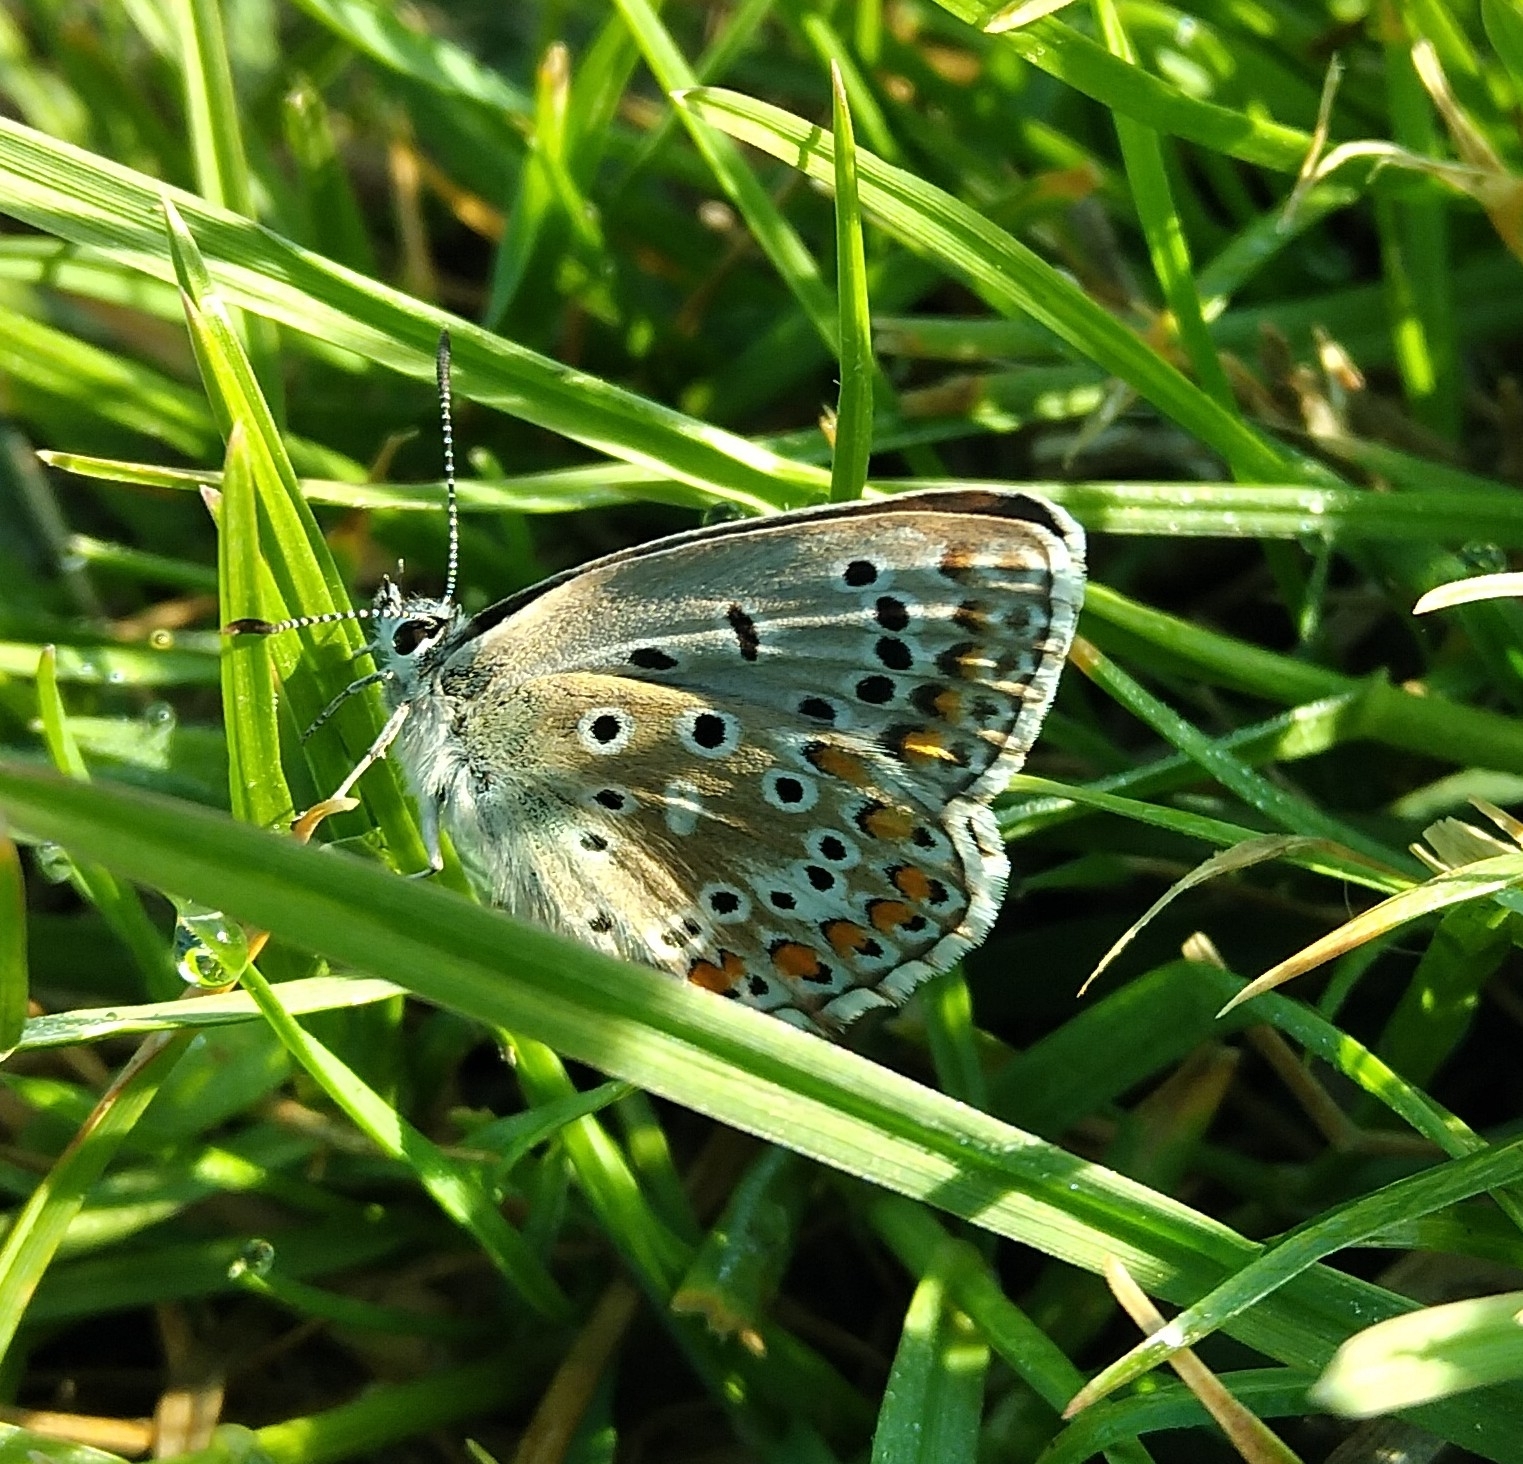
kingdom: Animalia
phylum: Arthropoda
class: Insecta
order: Lepidoptera
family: Lycaenidae
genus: Polyommatus
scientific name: Polyommatus icarus
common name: Common blue
